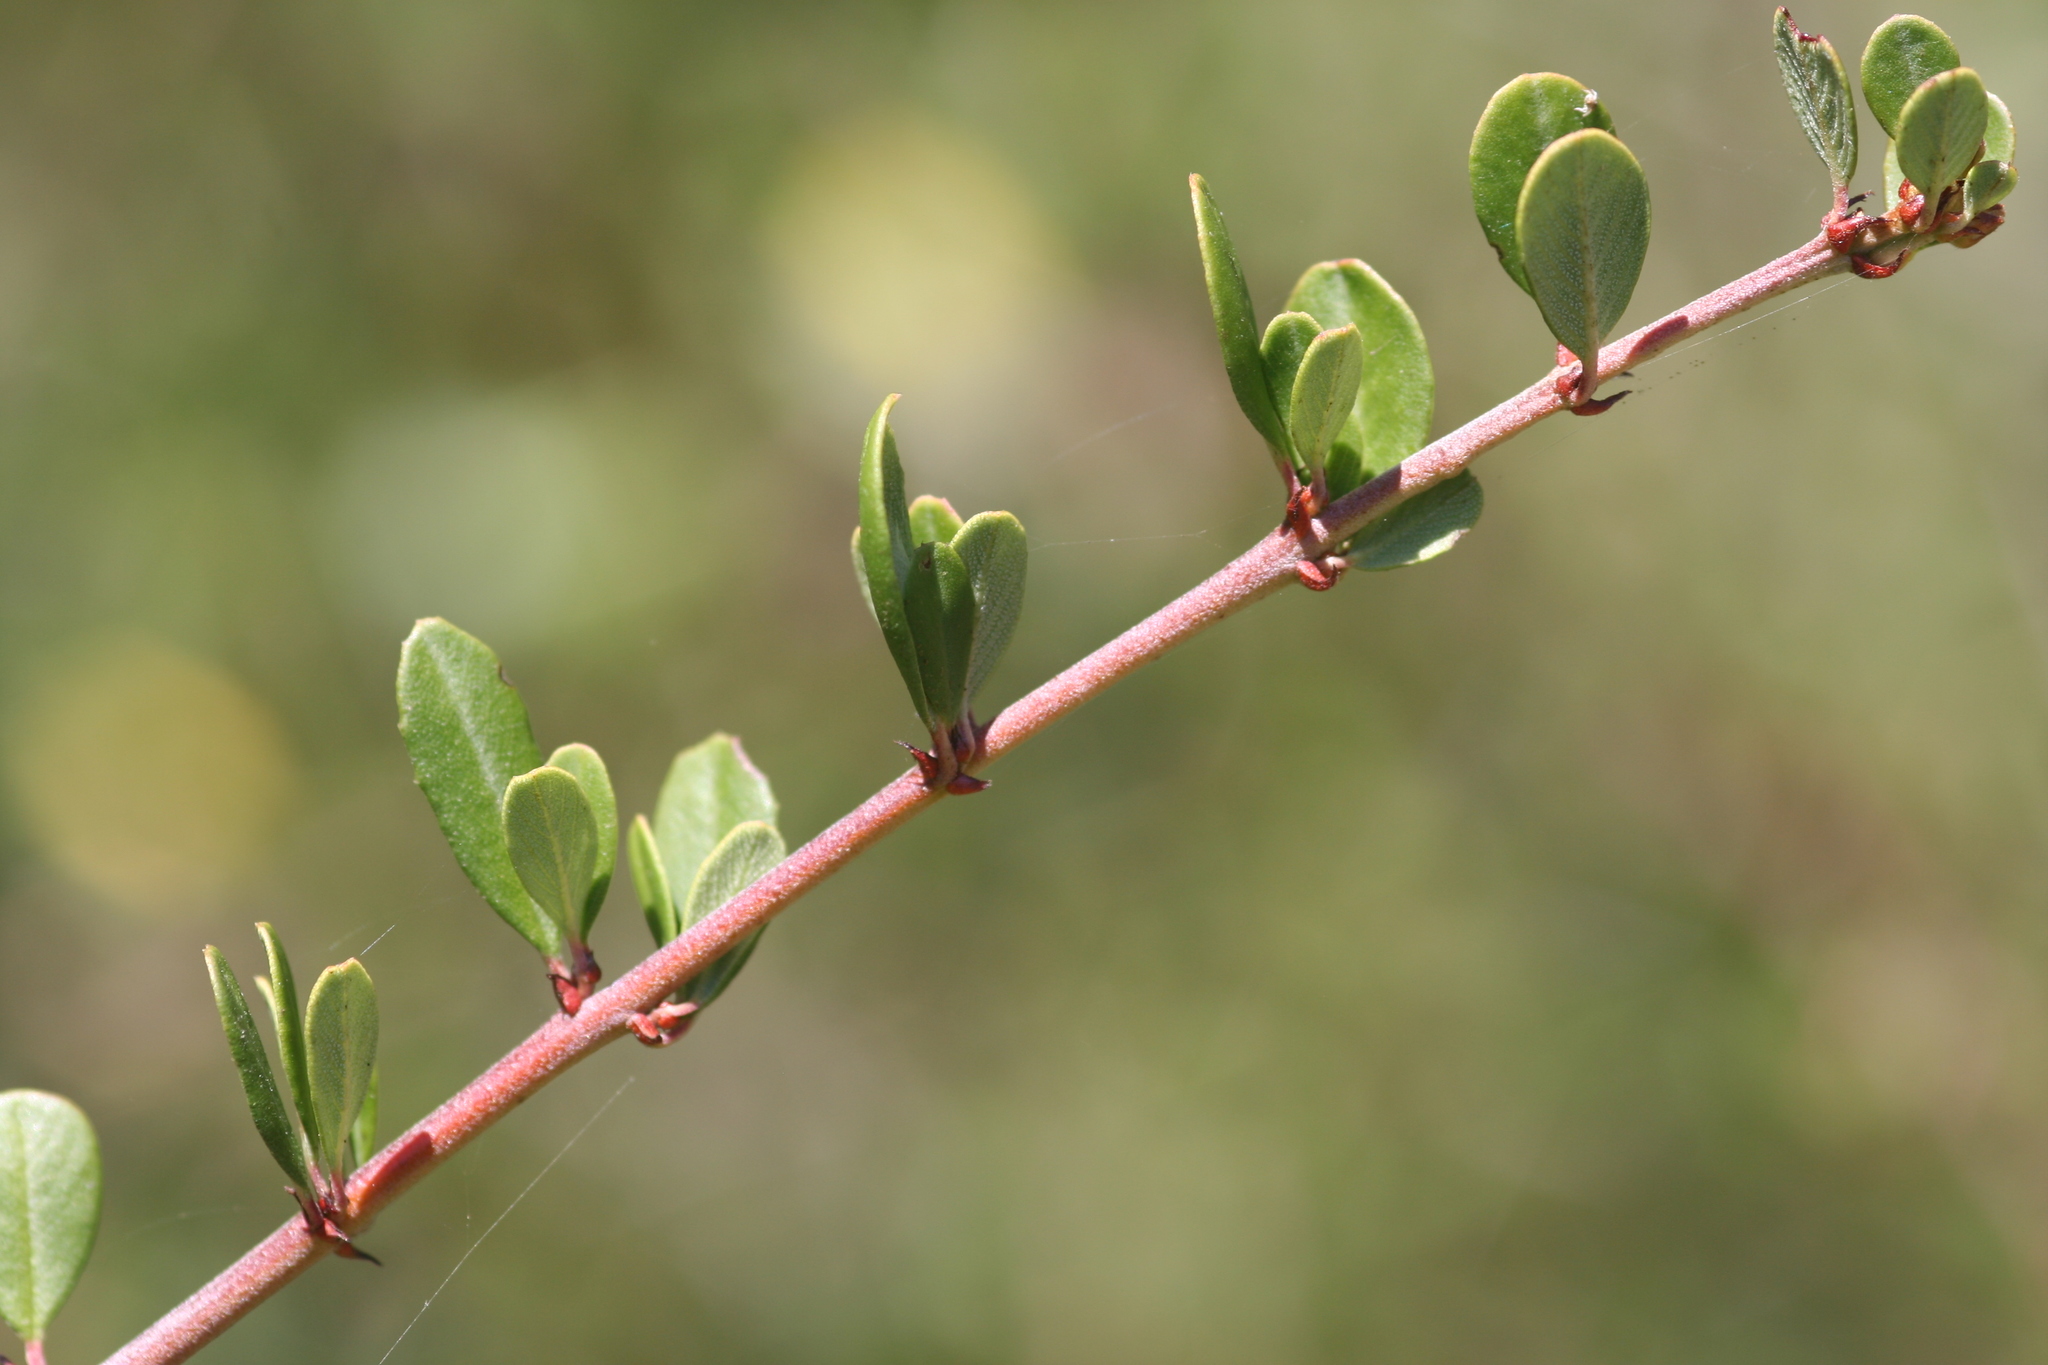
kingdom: Plantae
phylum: Tracheophyta
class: Magnoliopsida
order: Rosales
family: Rhamnaceae
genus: Ceanothus
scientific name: Ceanothus cuneatus
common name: Cuneate ceanothus
